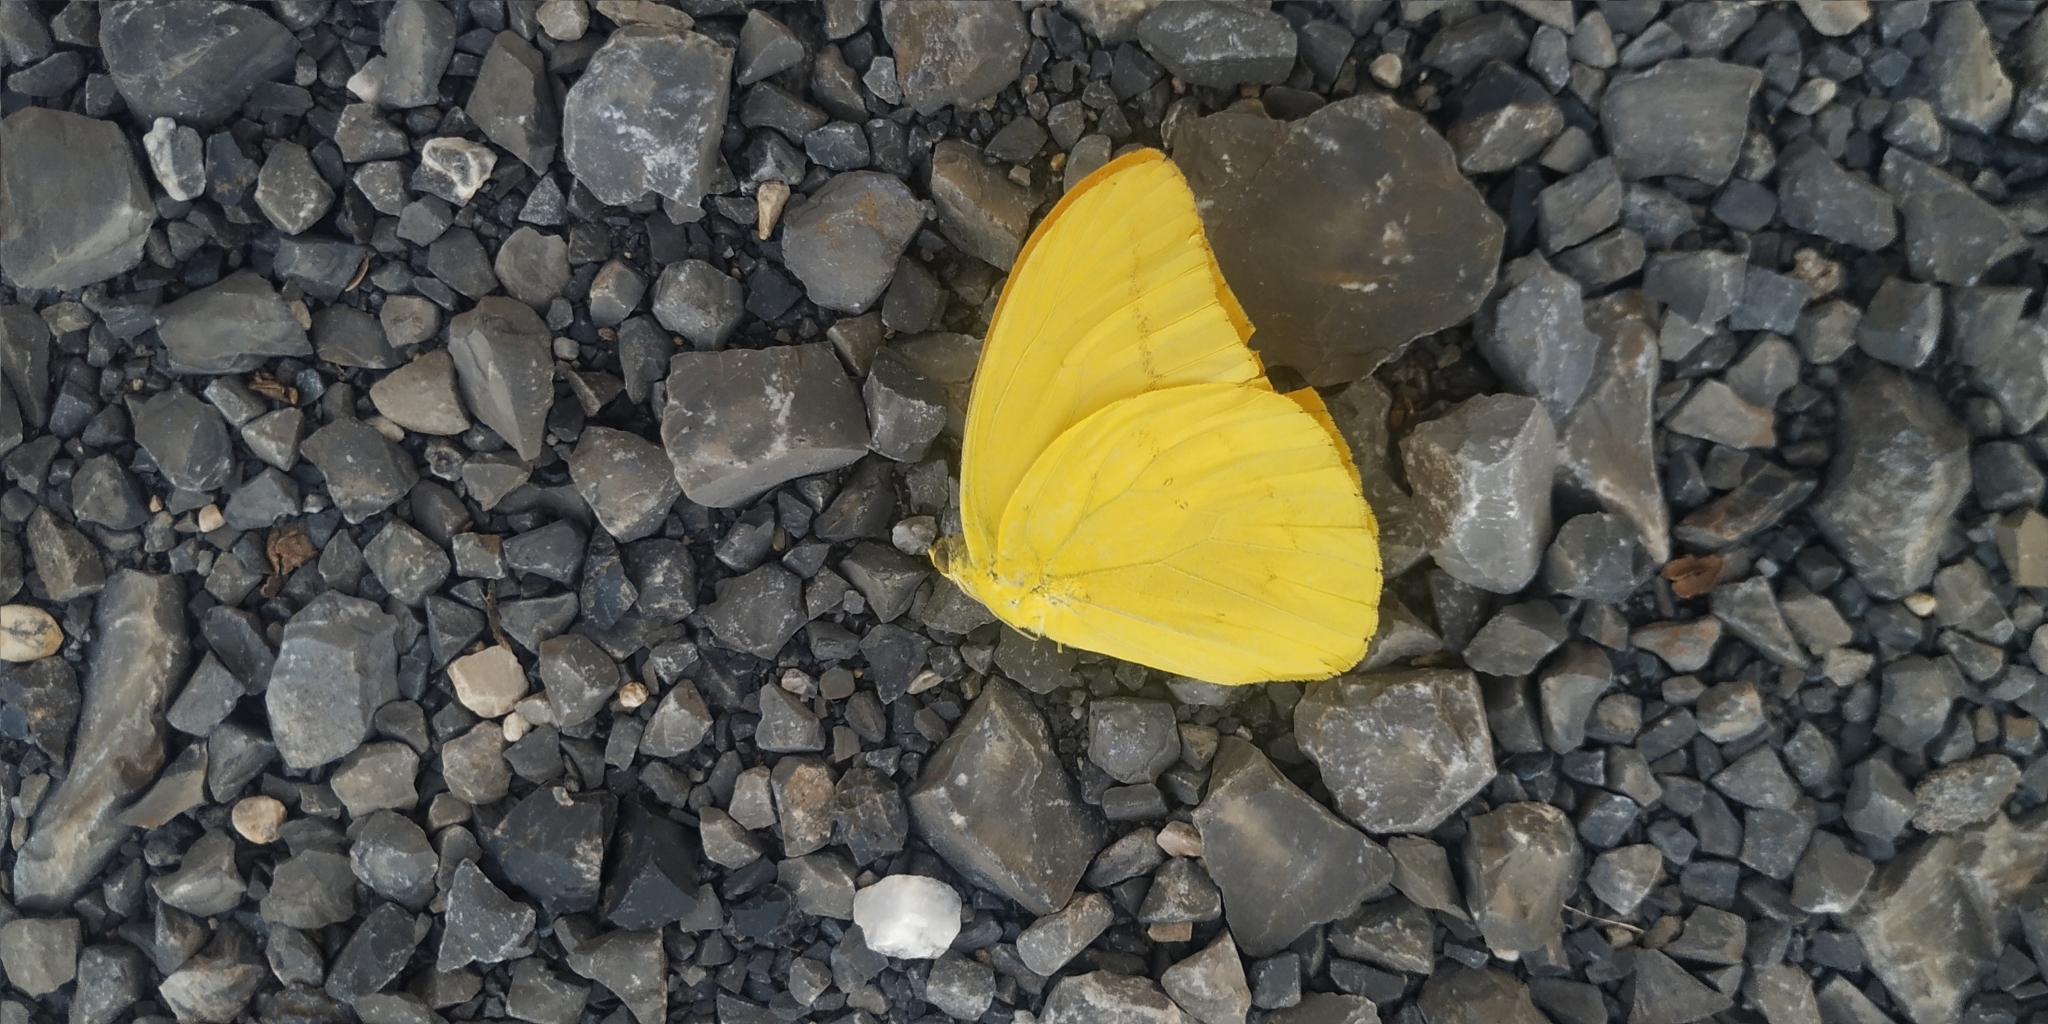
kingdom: Animalia
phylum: Arthropoda
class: Insecta
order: Lepidoptera
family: Pieridae
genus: Phoebis
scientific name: Phoebis agarithe
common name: Large orange sulphur
